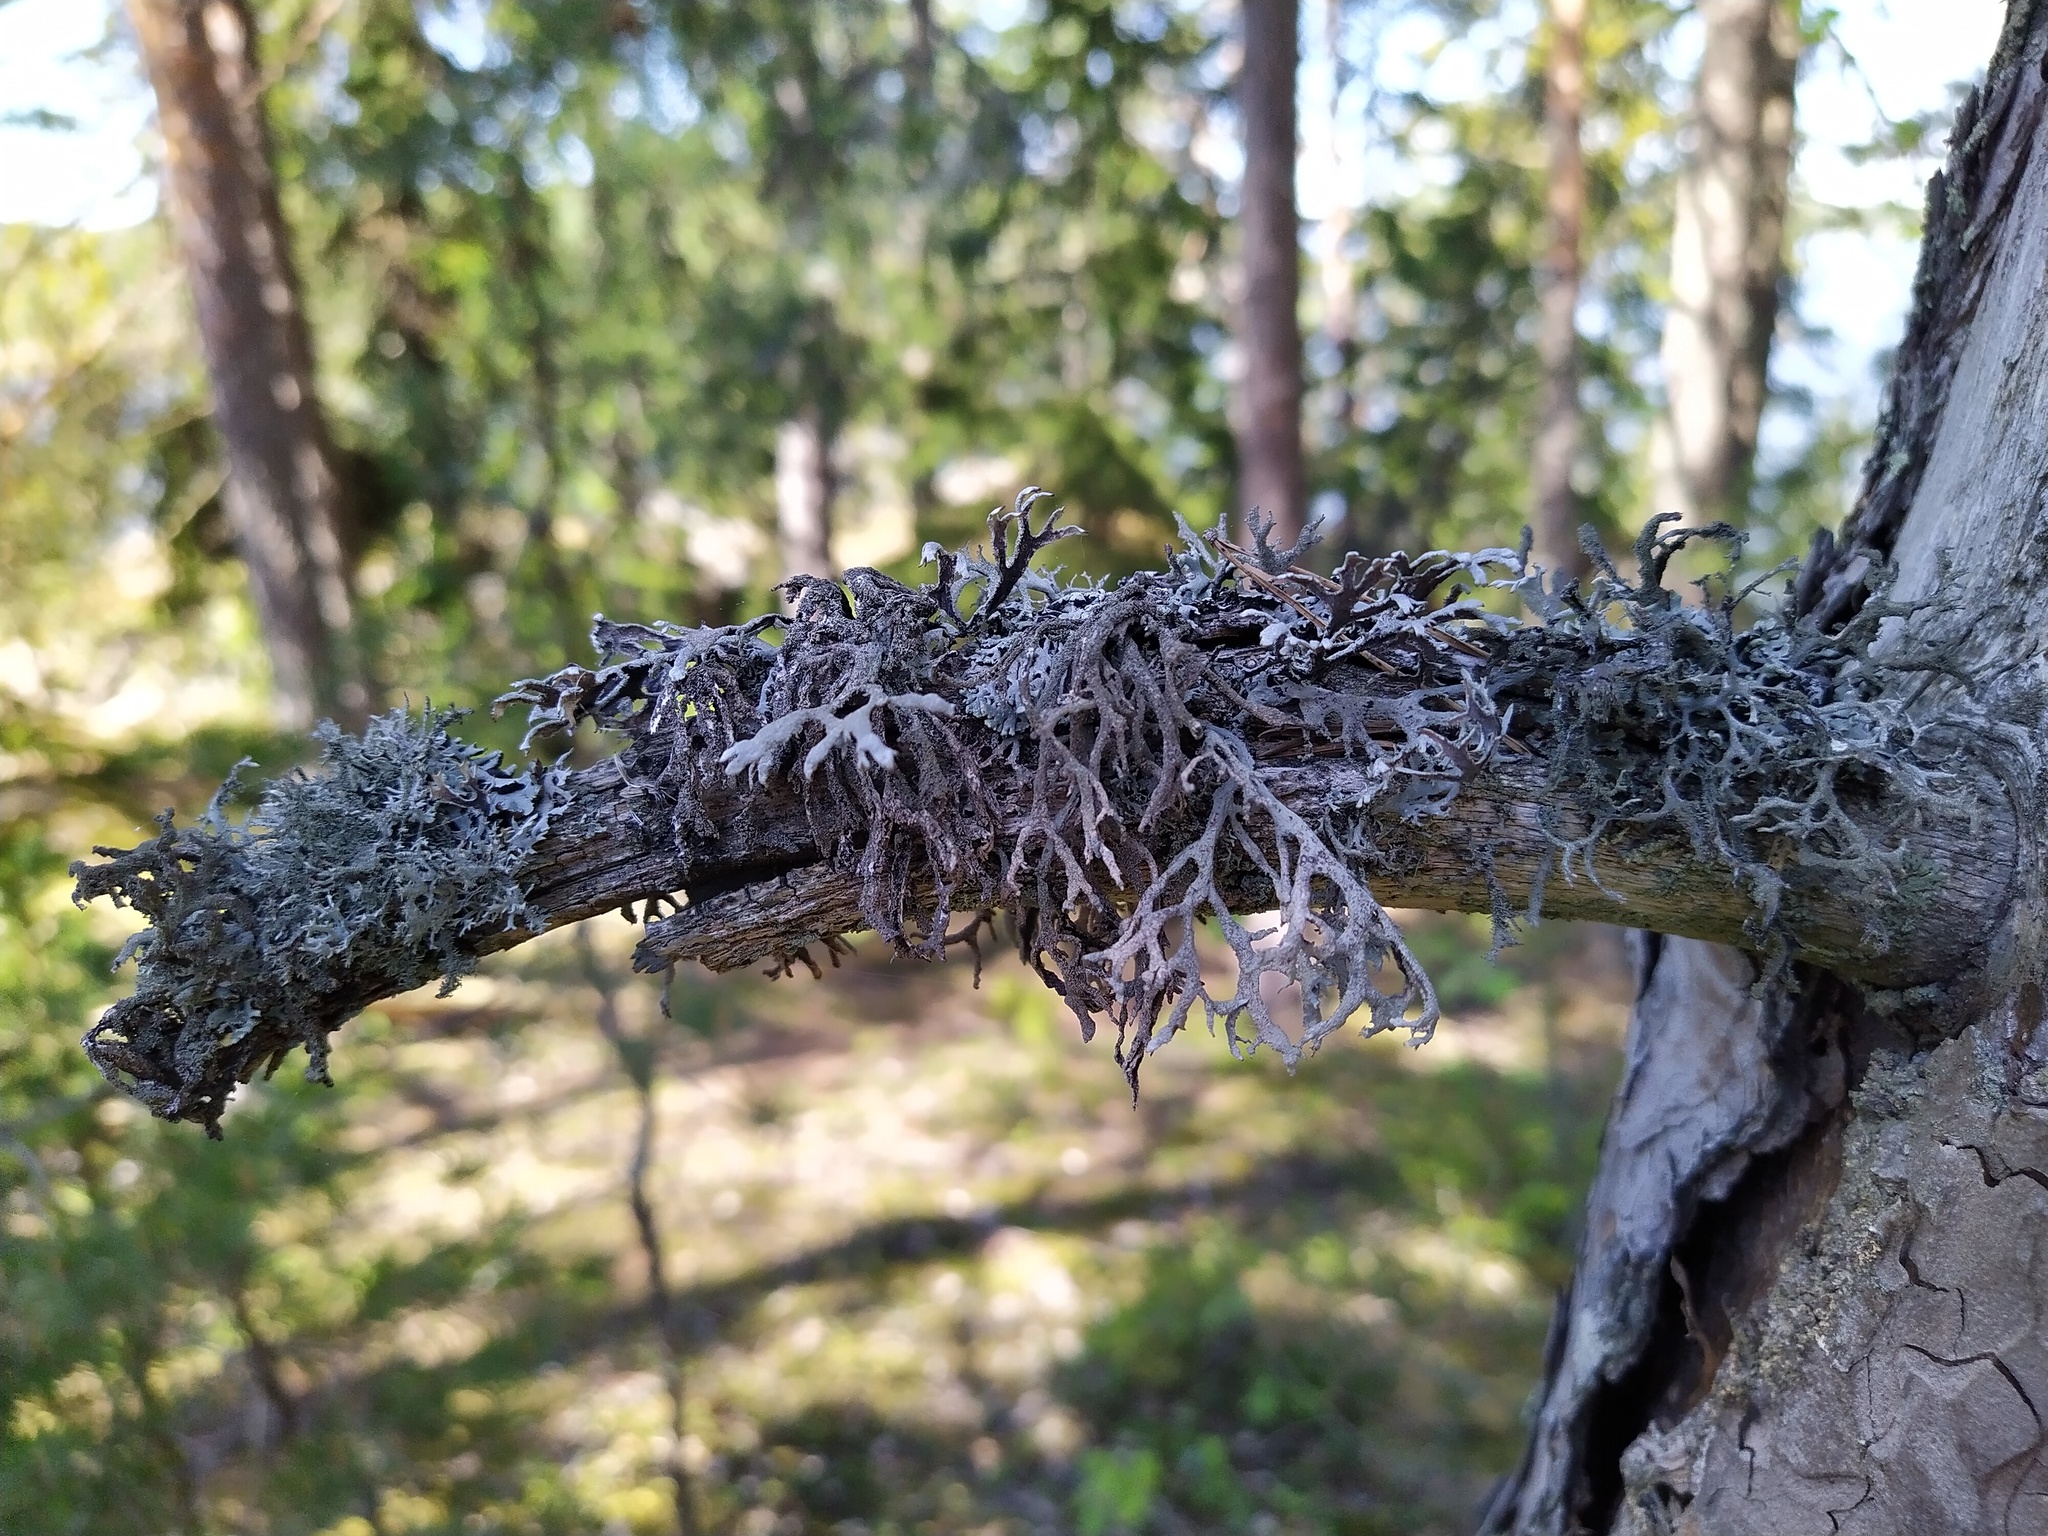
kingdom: Fungi
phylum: Ascomycota
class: Lecanoromycetes
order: Lecanorales
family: Parmeliaceae
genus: Pseudevernia
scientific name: Pseudevernia furfuracea
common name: Tree moss
